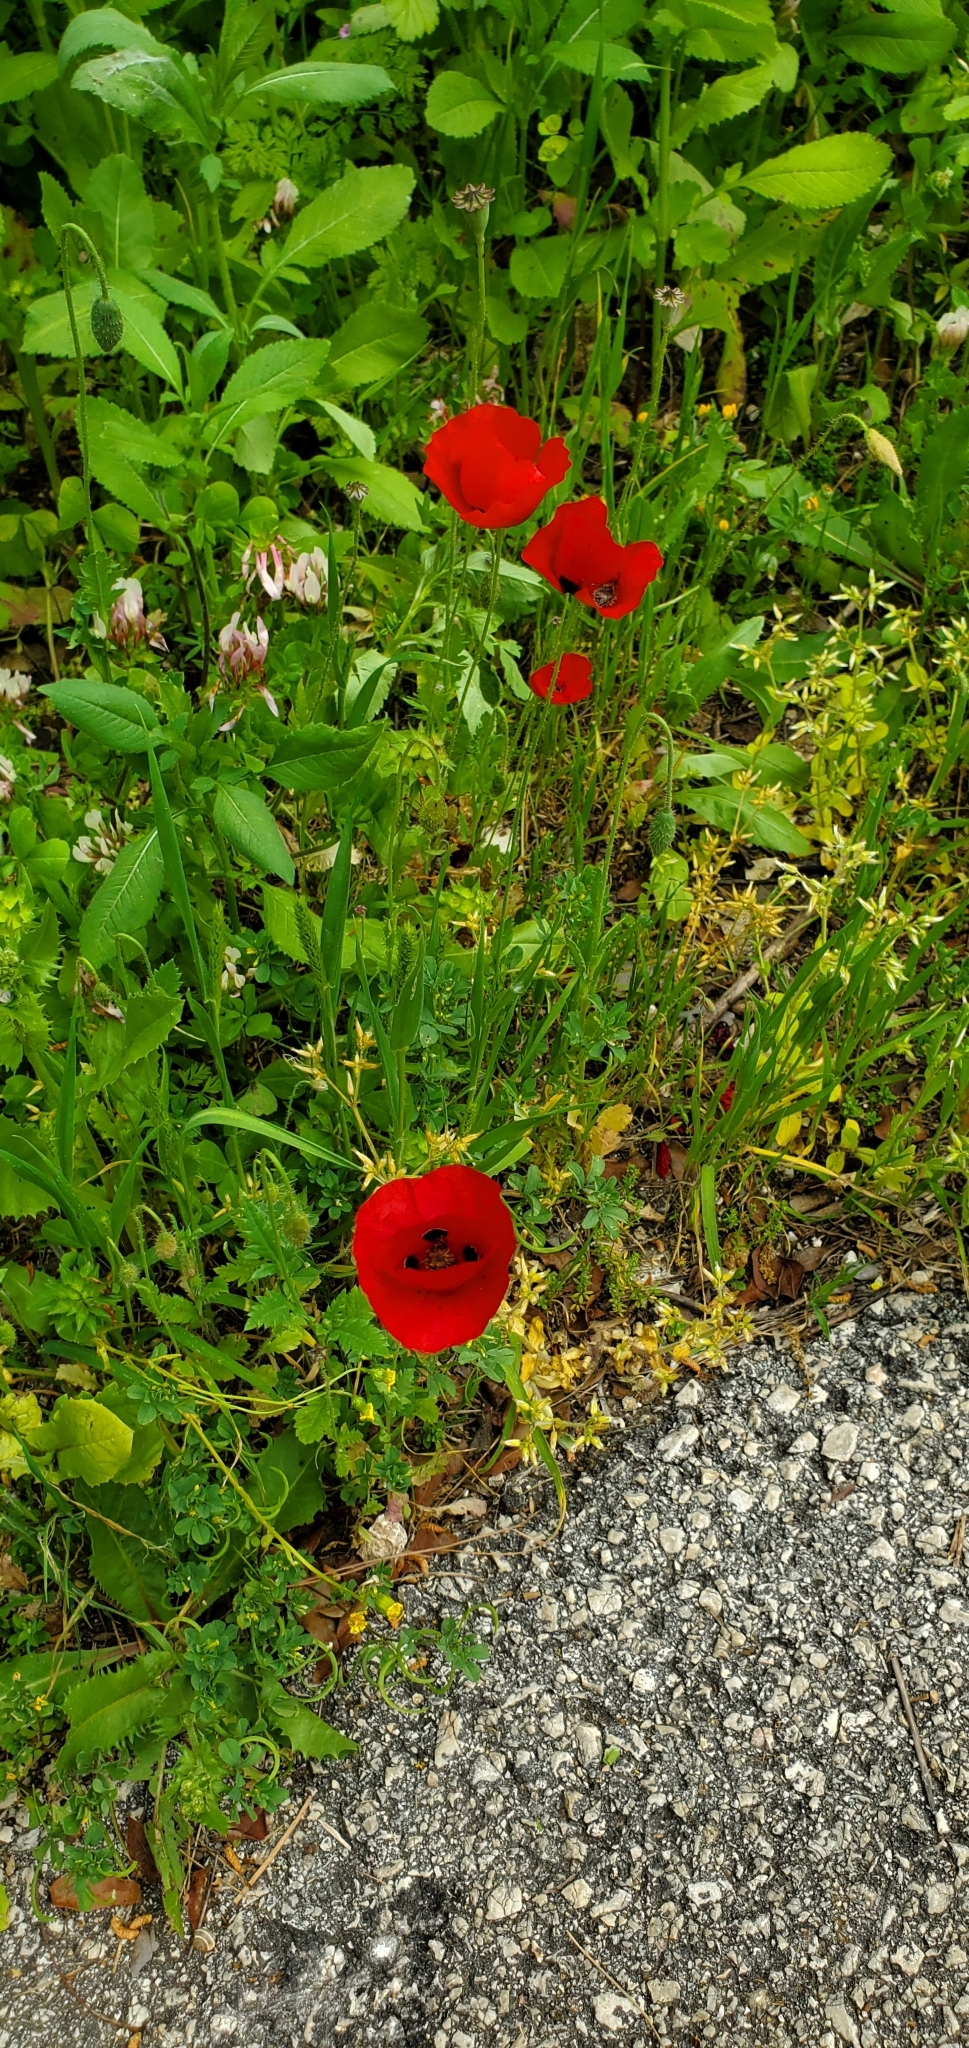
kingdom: Plantae
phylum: Tracheophyta
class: Magnoliopsida
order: Ranunculales
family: Papaveraceae
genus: Papaver
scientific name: Papaver umbonatum
